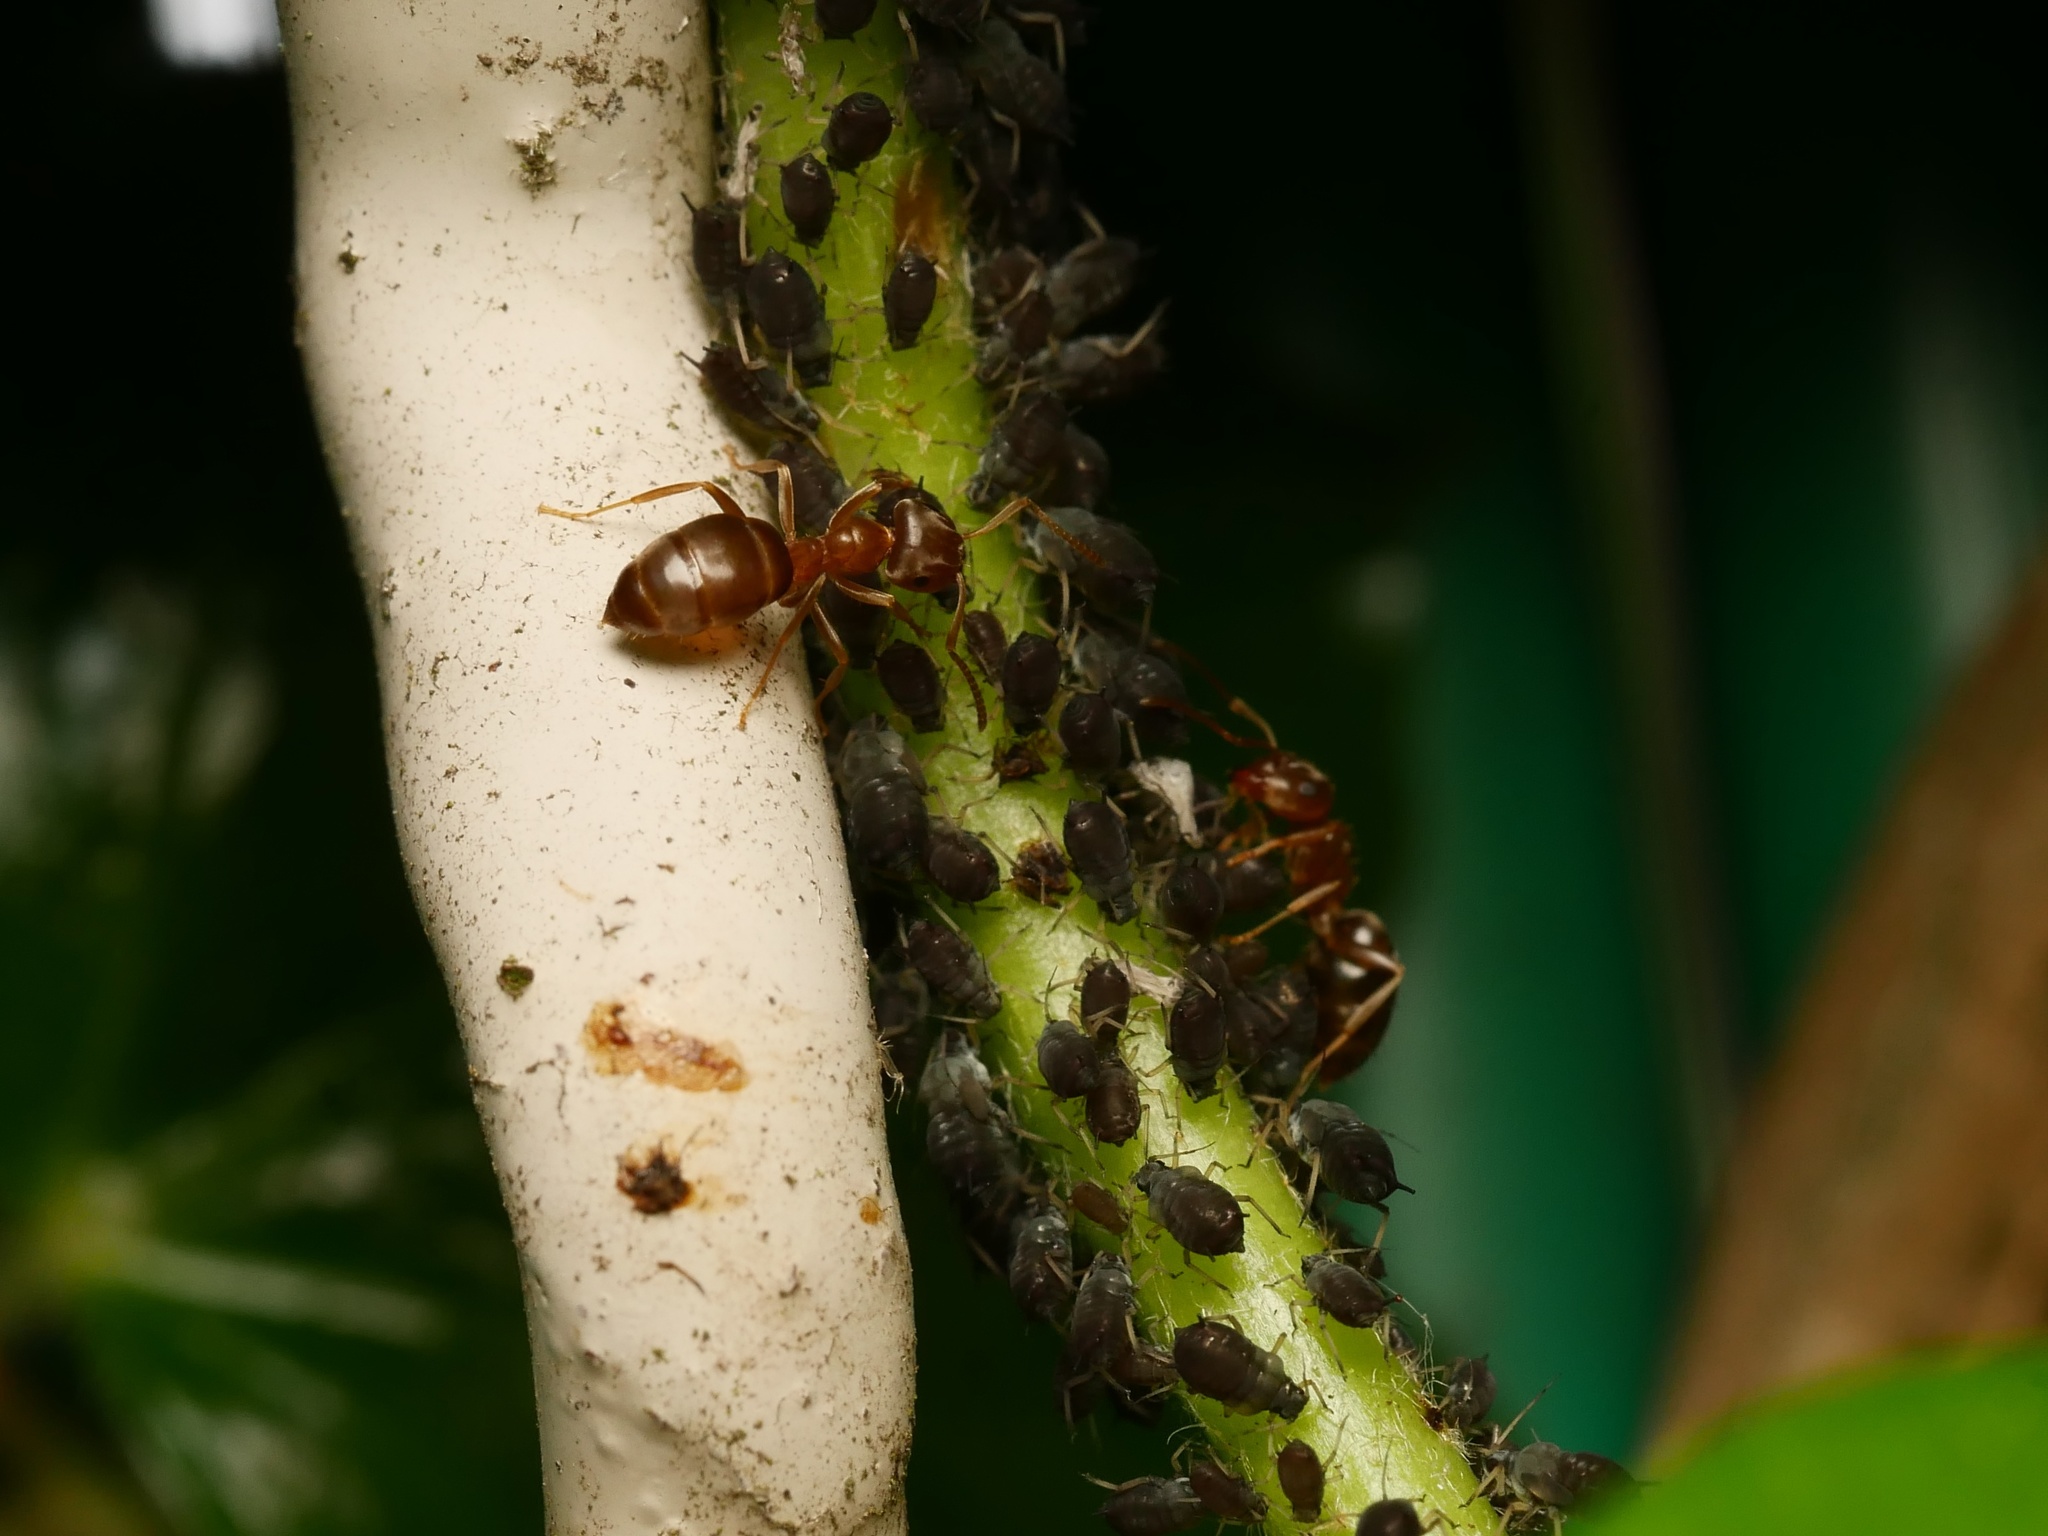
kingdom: Animalia
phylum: Arthropoda
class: Insecta
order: Hymenoptera
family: Formicidae
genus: Lasius
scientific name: Lasius brunneus
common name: Brown ant
